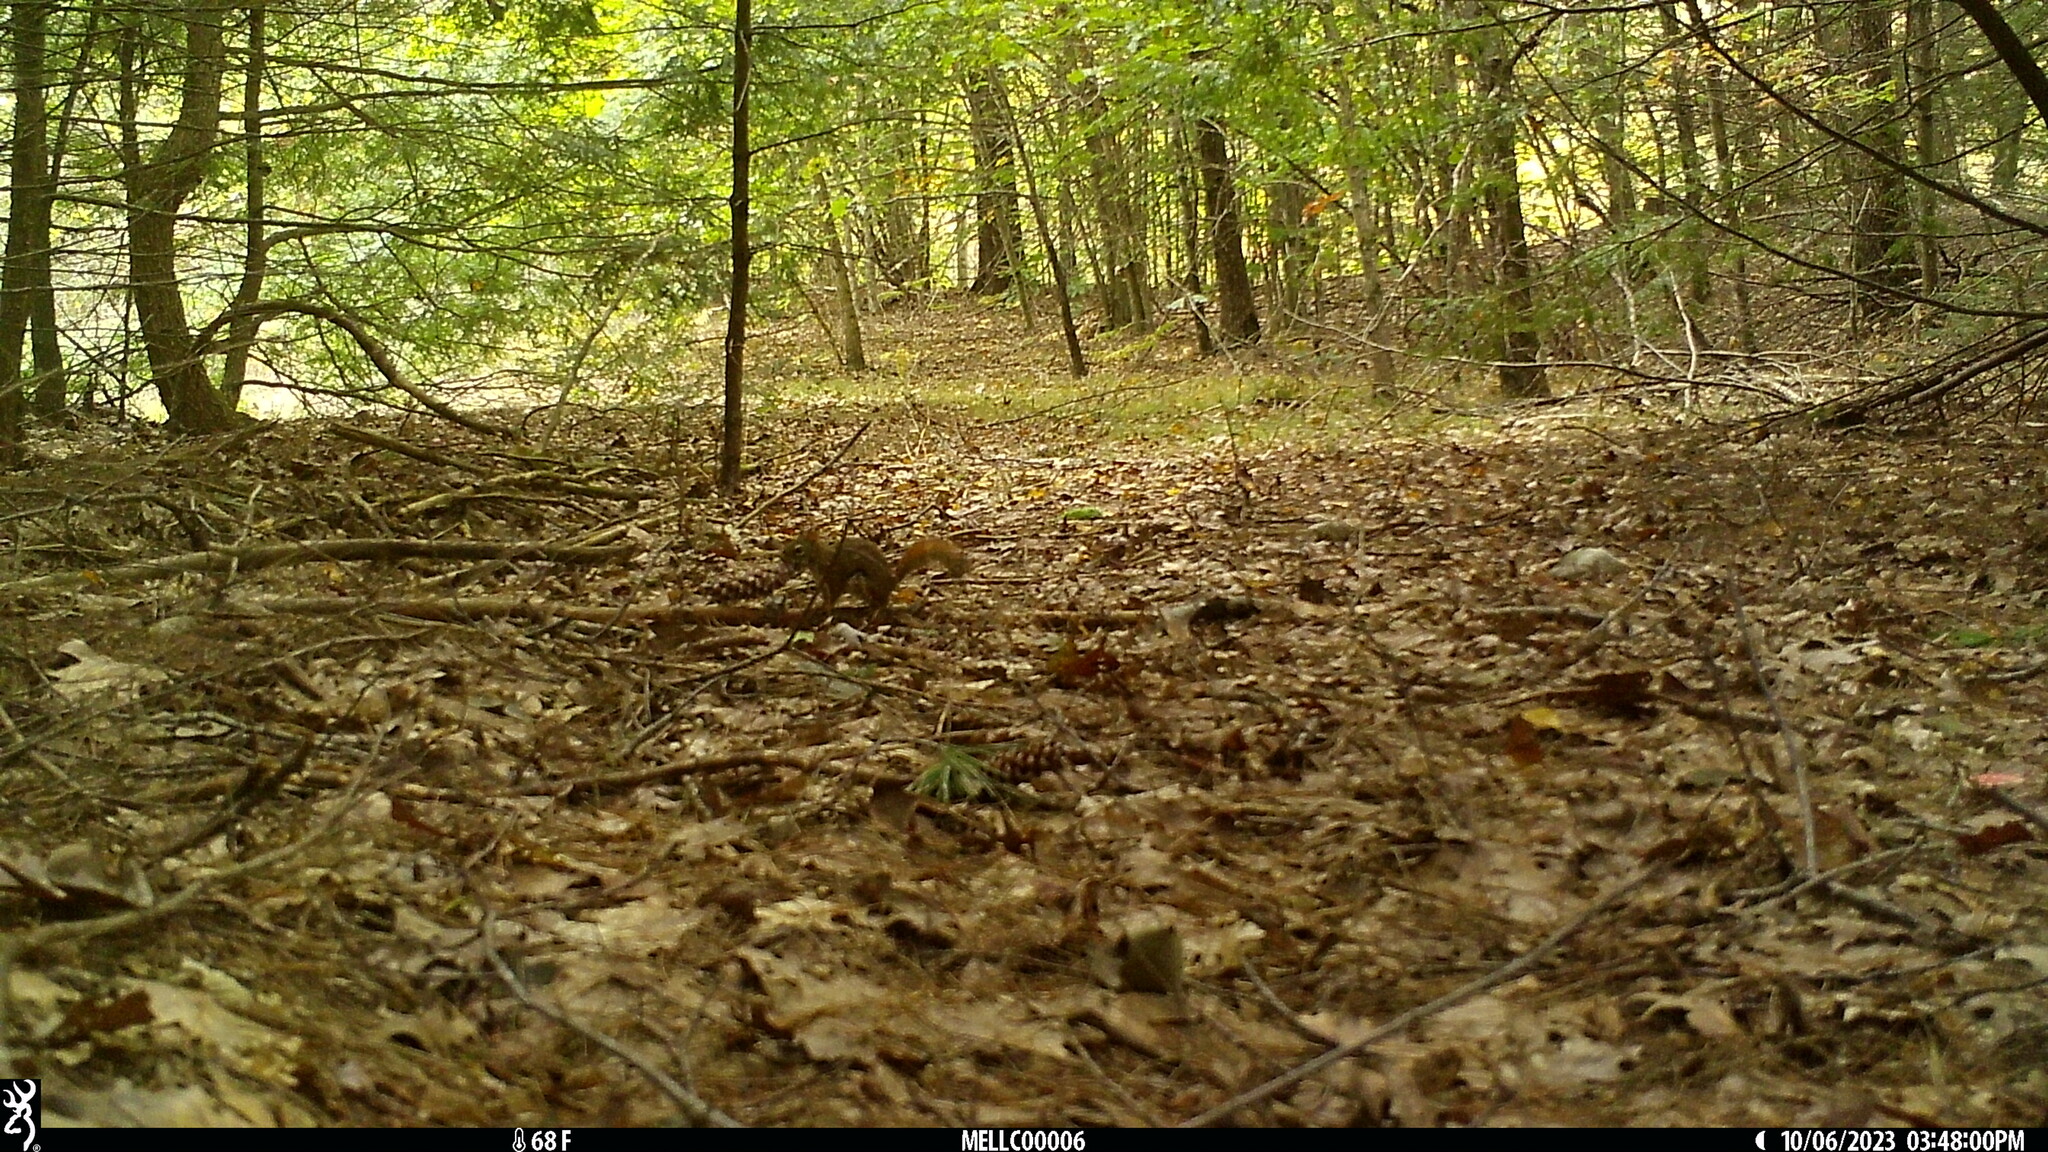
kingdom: Animalia
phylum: Chordata
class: Mammalia
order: Rodentia
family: Sciuridae
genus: Tamiasciurus
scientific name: Tamiasciurus hudsonicus
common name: Red squirrel
